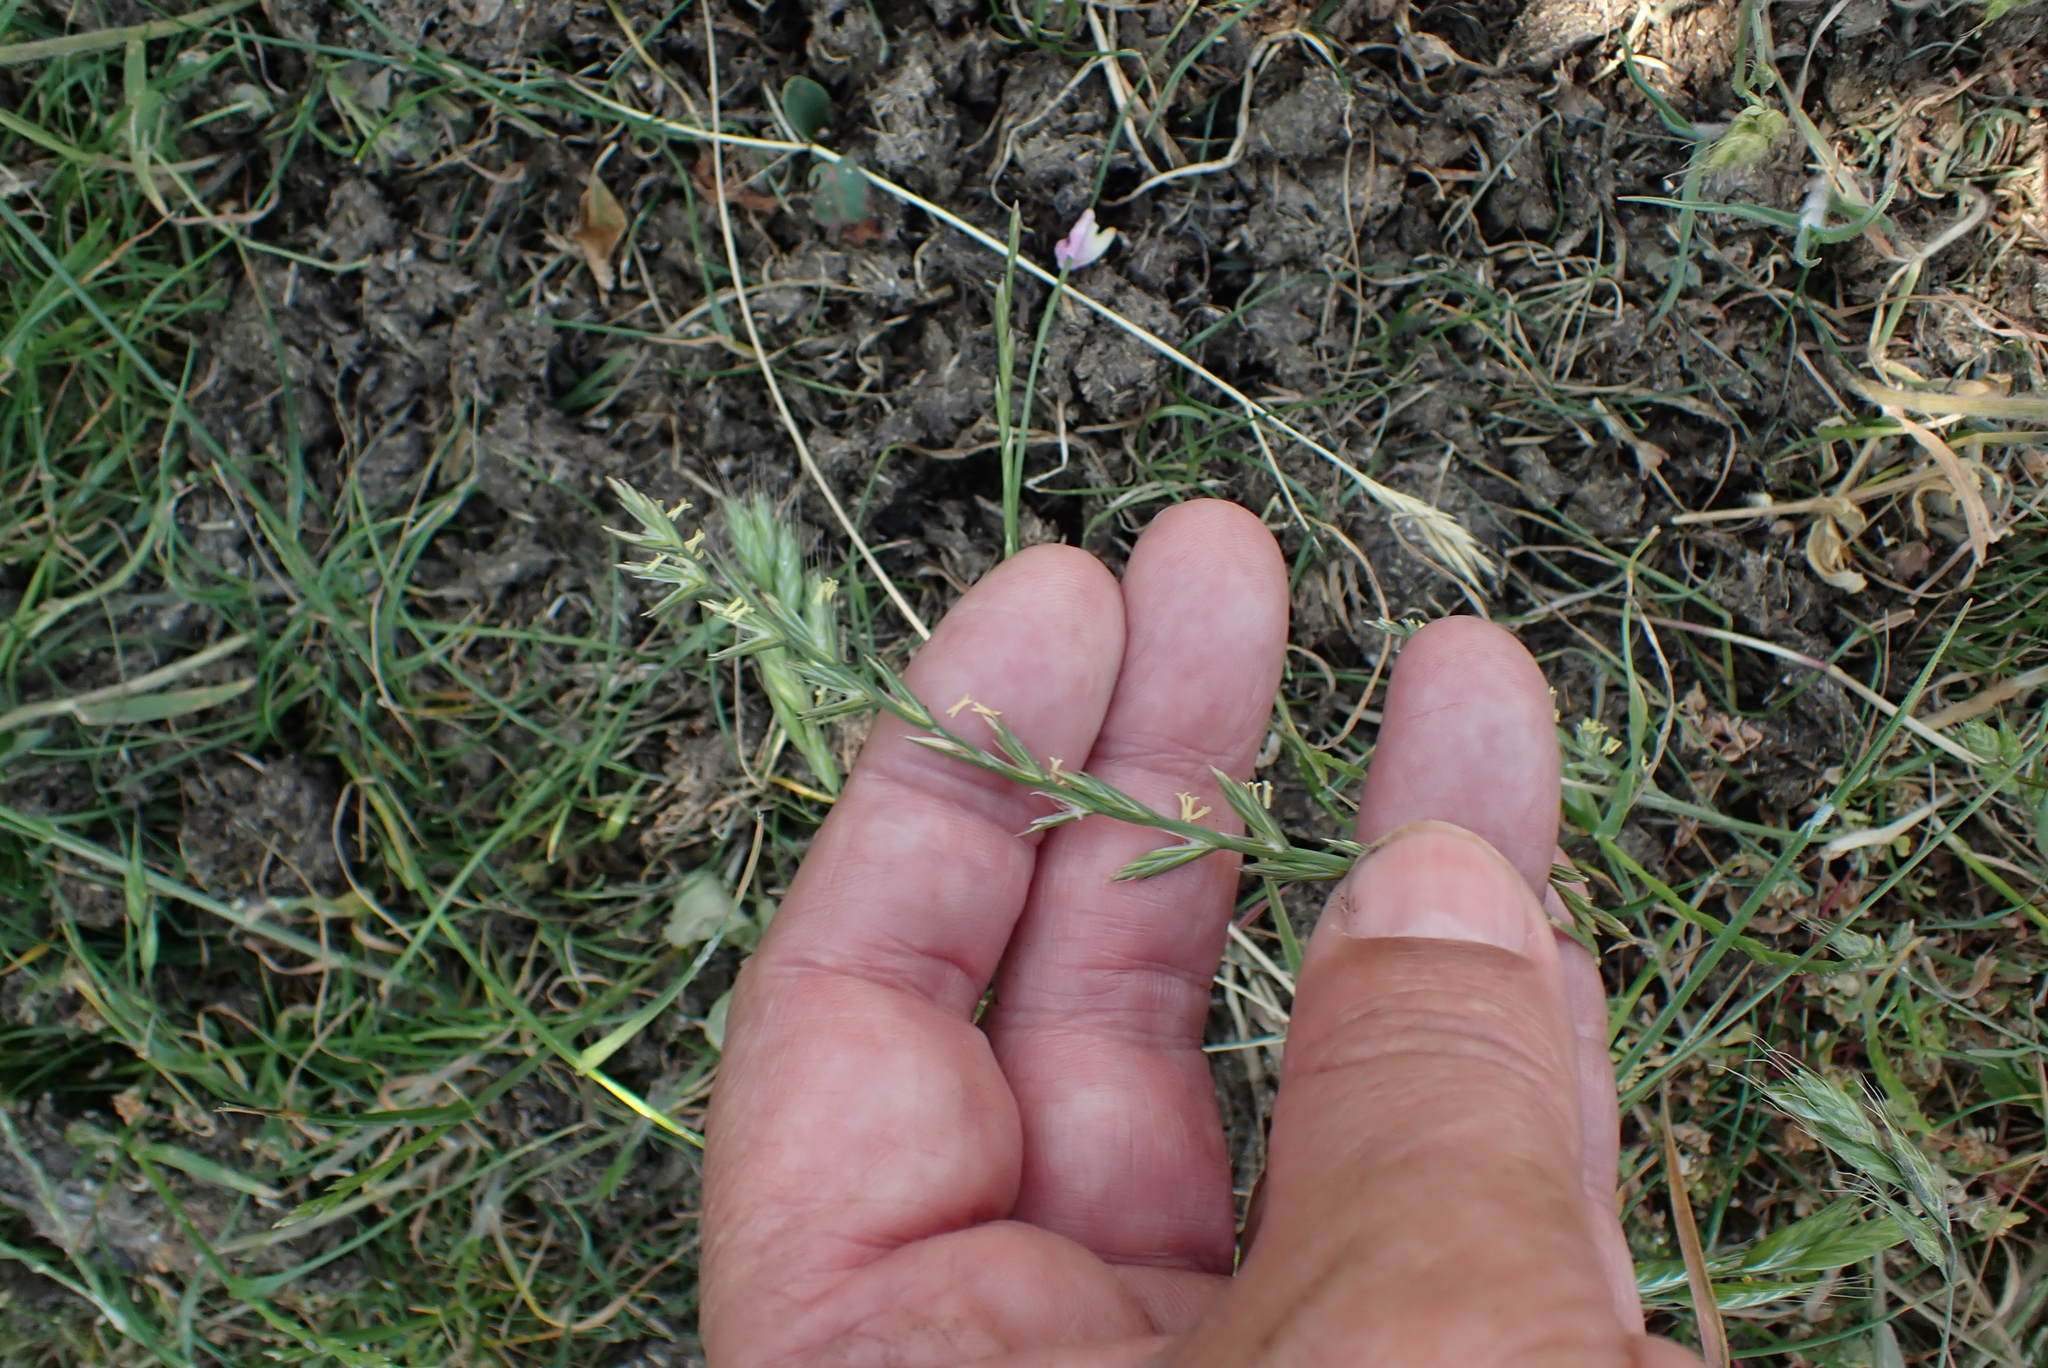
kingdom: Plantae
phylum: Tracheophyta
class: Liliopsida
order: Poales
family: Poaceae
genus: Lolium
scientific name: Lolium perenne
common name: Perennial ryegrass
